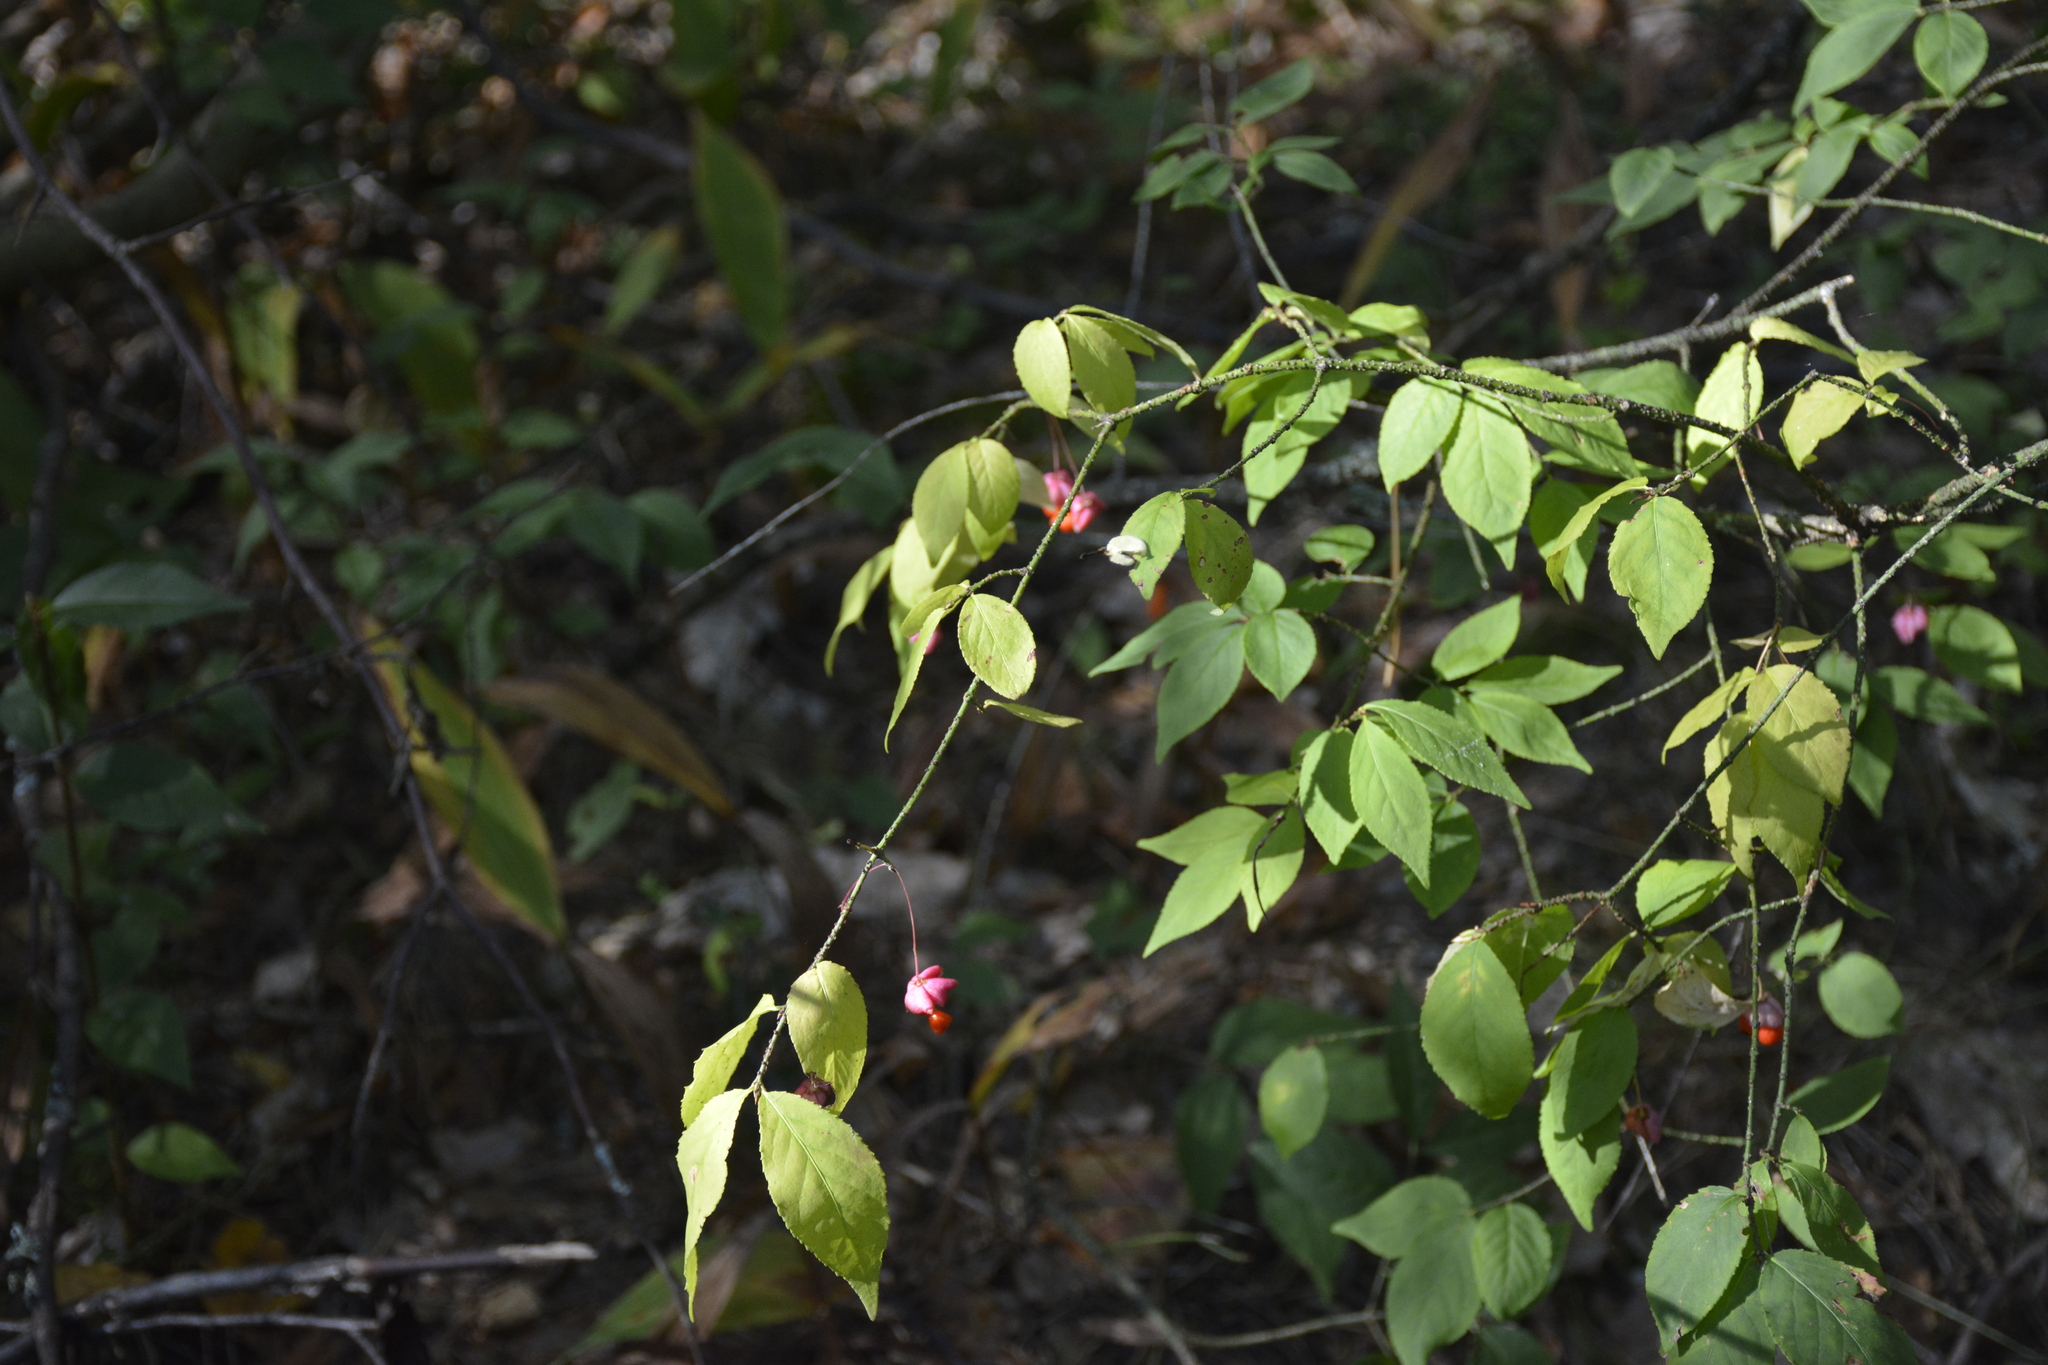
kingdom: Plantae
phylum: Tracheophyta
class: Magnoliopsida
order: Celastrales
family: Celastraceae
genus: Euonymus
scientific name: Euonymus verrucosus
